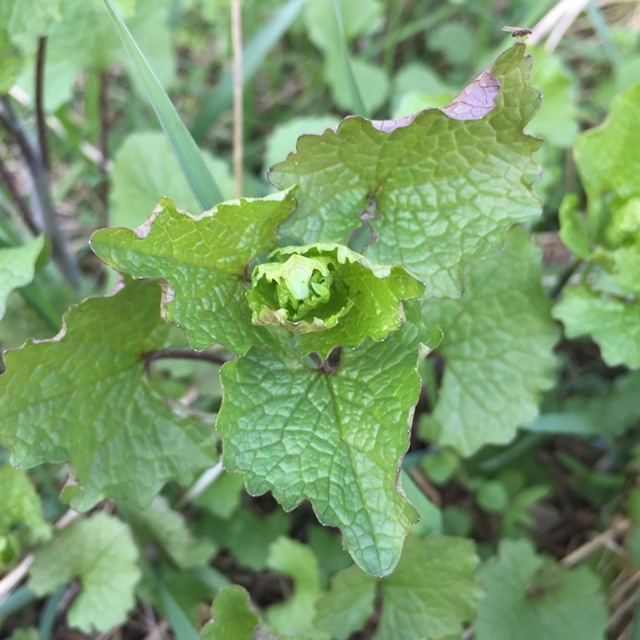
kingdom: Plantae
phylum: Tracheophyta
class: Magnoliopsida
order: Brassicales
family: Brassicaceae
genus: Alliaria
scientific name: Alliaria petiolata
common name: Garlic mustard
